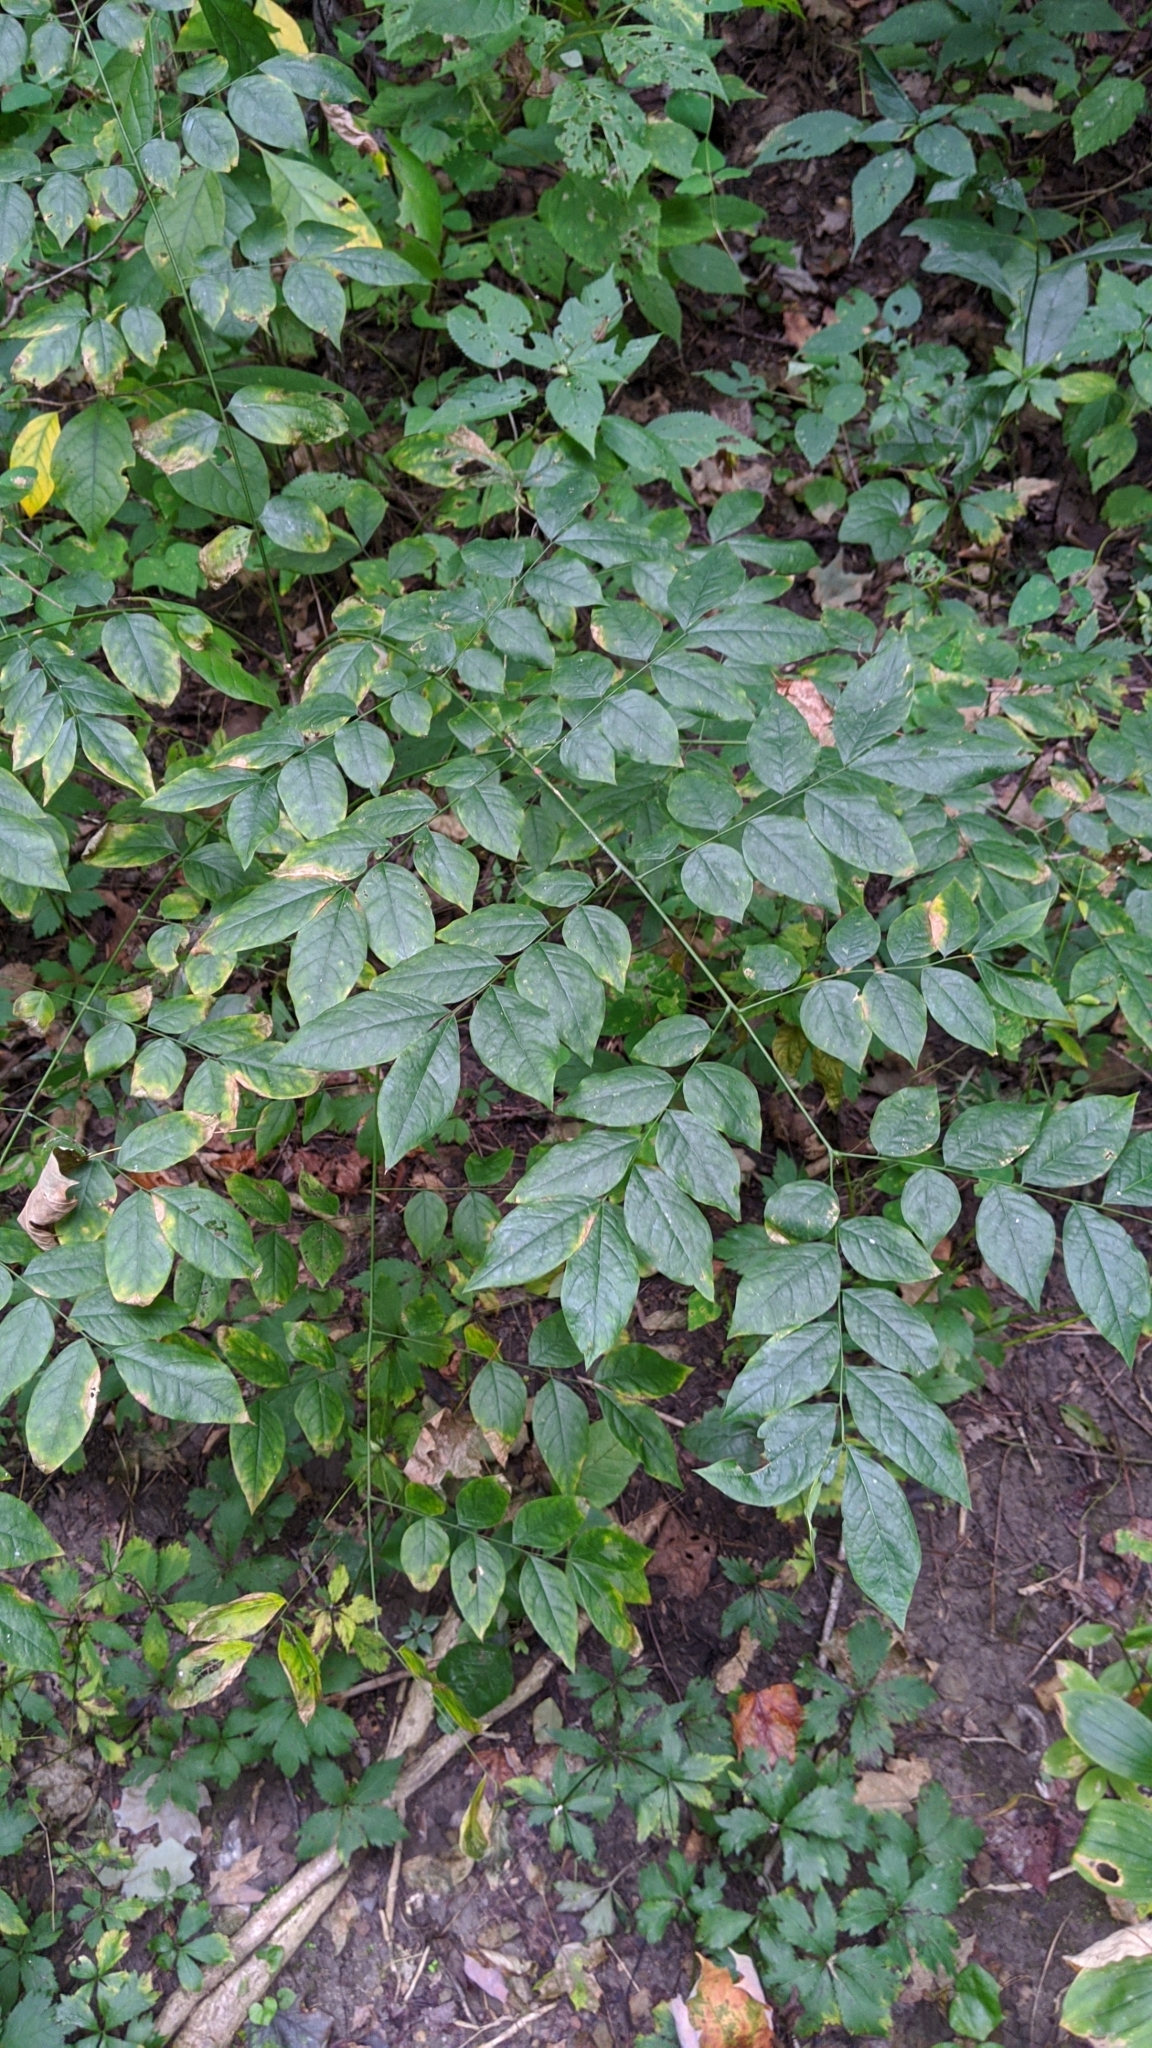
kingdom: Plantae
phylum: Tracheophyta
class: Magnoliopsida
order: Fabales
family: Fabaceae
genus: Gymnocladus
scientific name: Gymnocladus dioicus
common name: Kentucky coffee-tree
